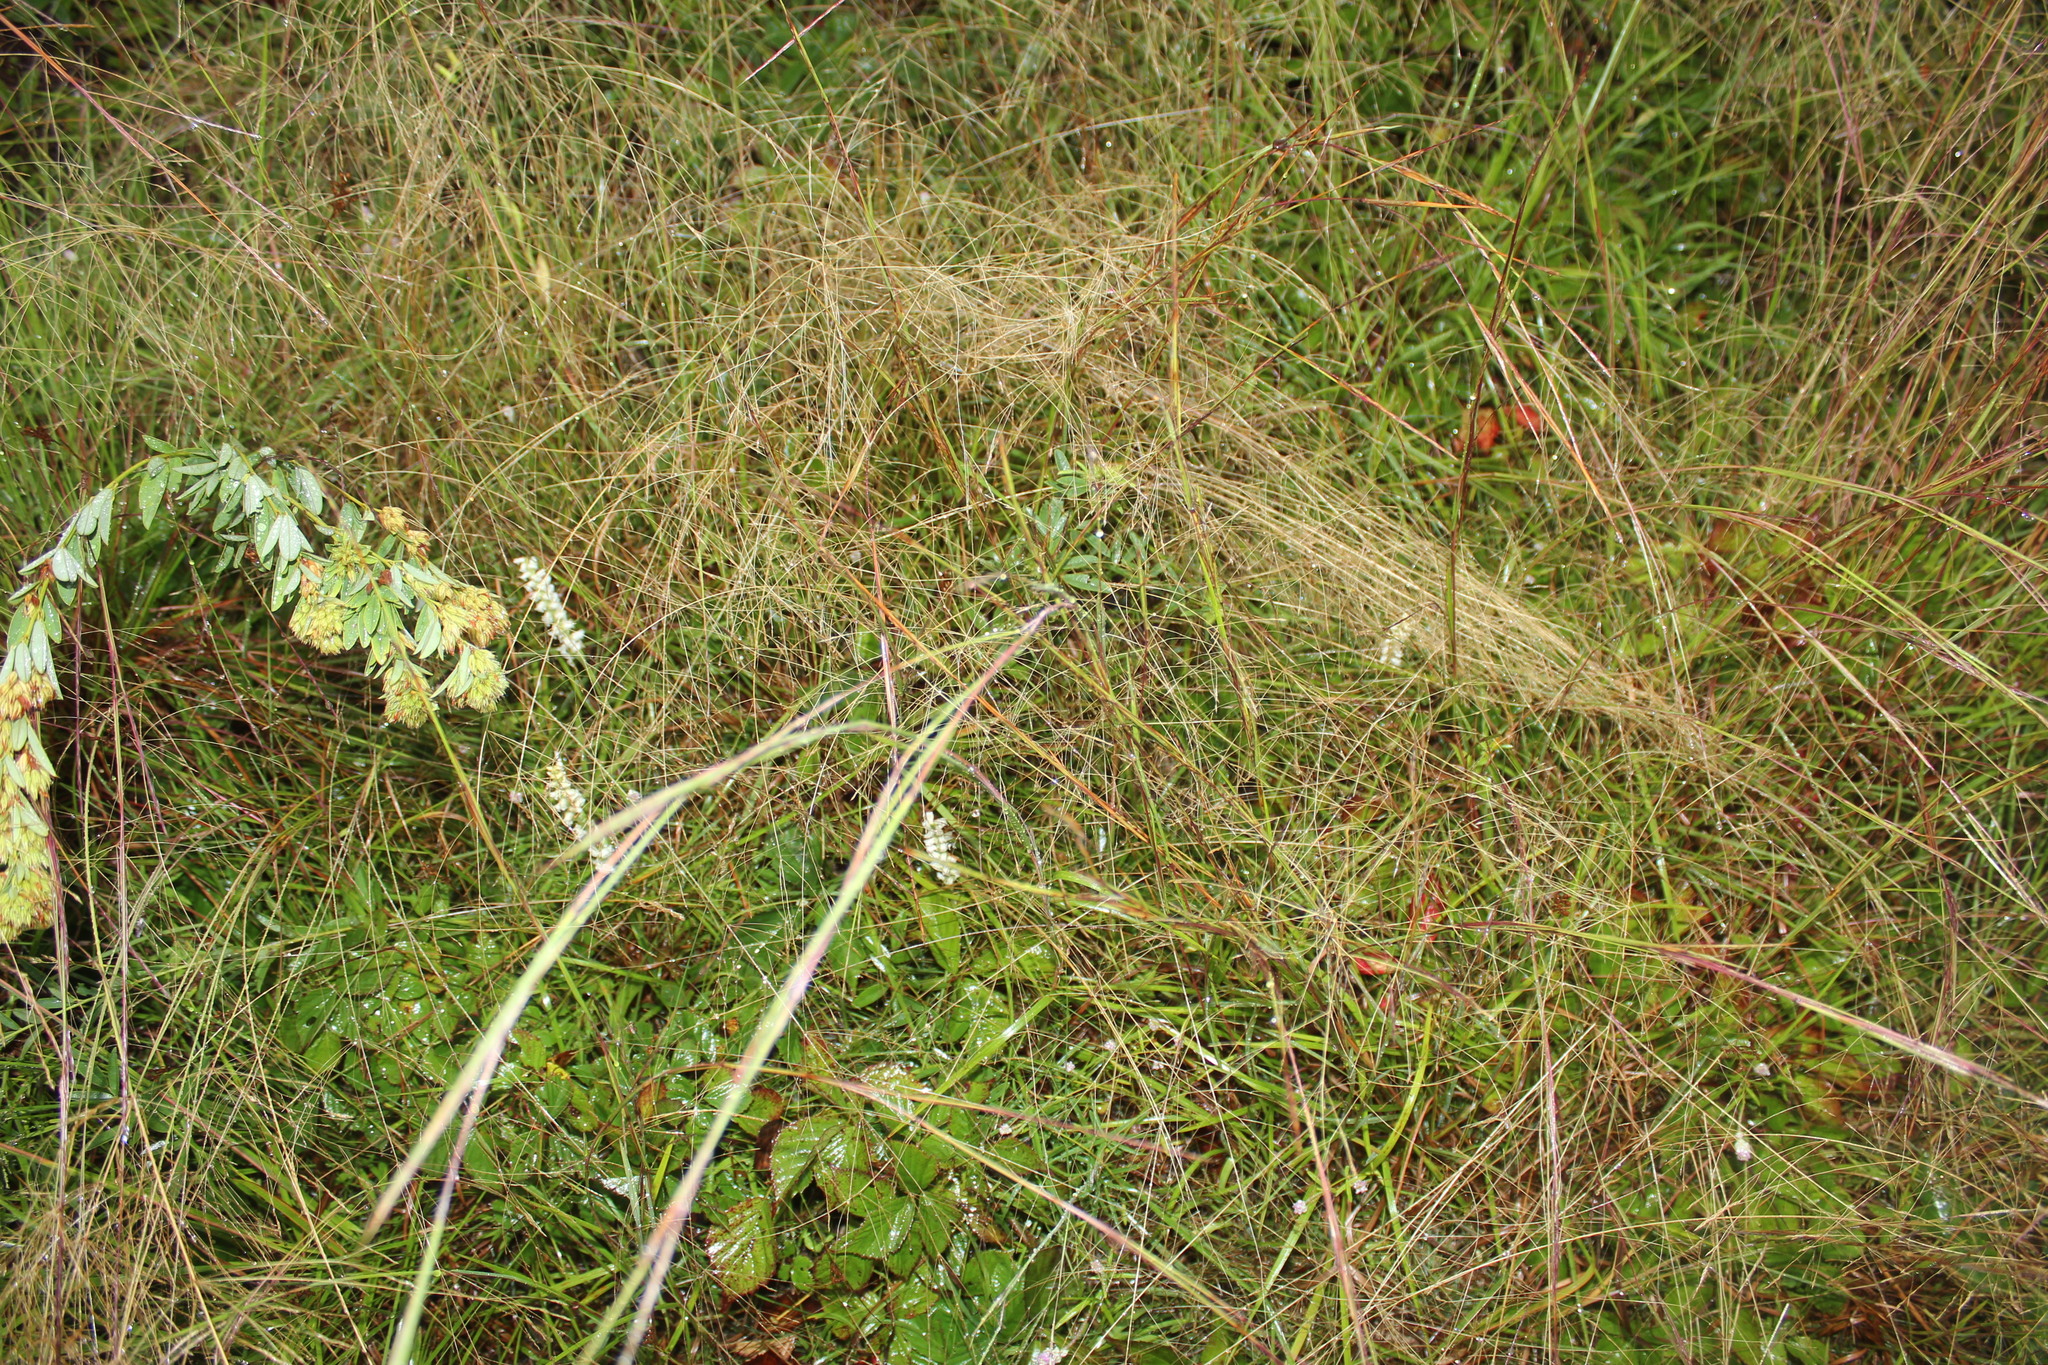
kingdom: Plantae
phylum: Tracheophyta
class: Liliopsida
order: Asparagales
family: Orchidaceae
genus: Spiranthes
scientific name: Spiranthes ochroleuca
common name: Yellow ladies'-tresses
